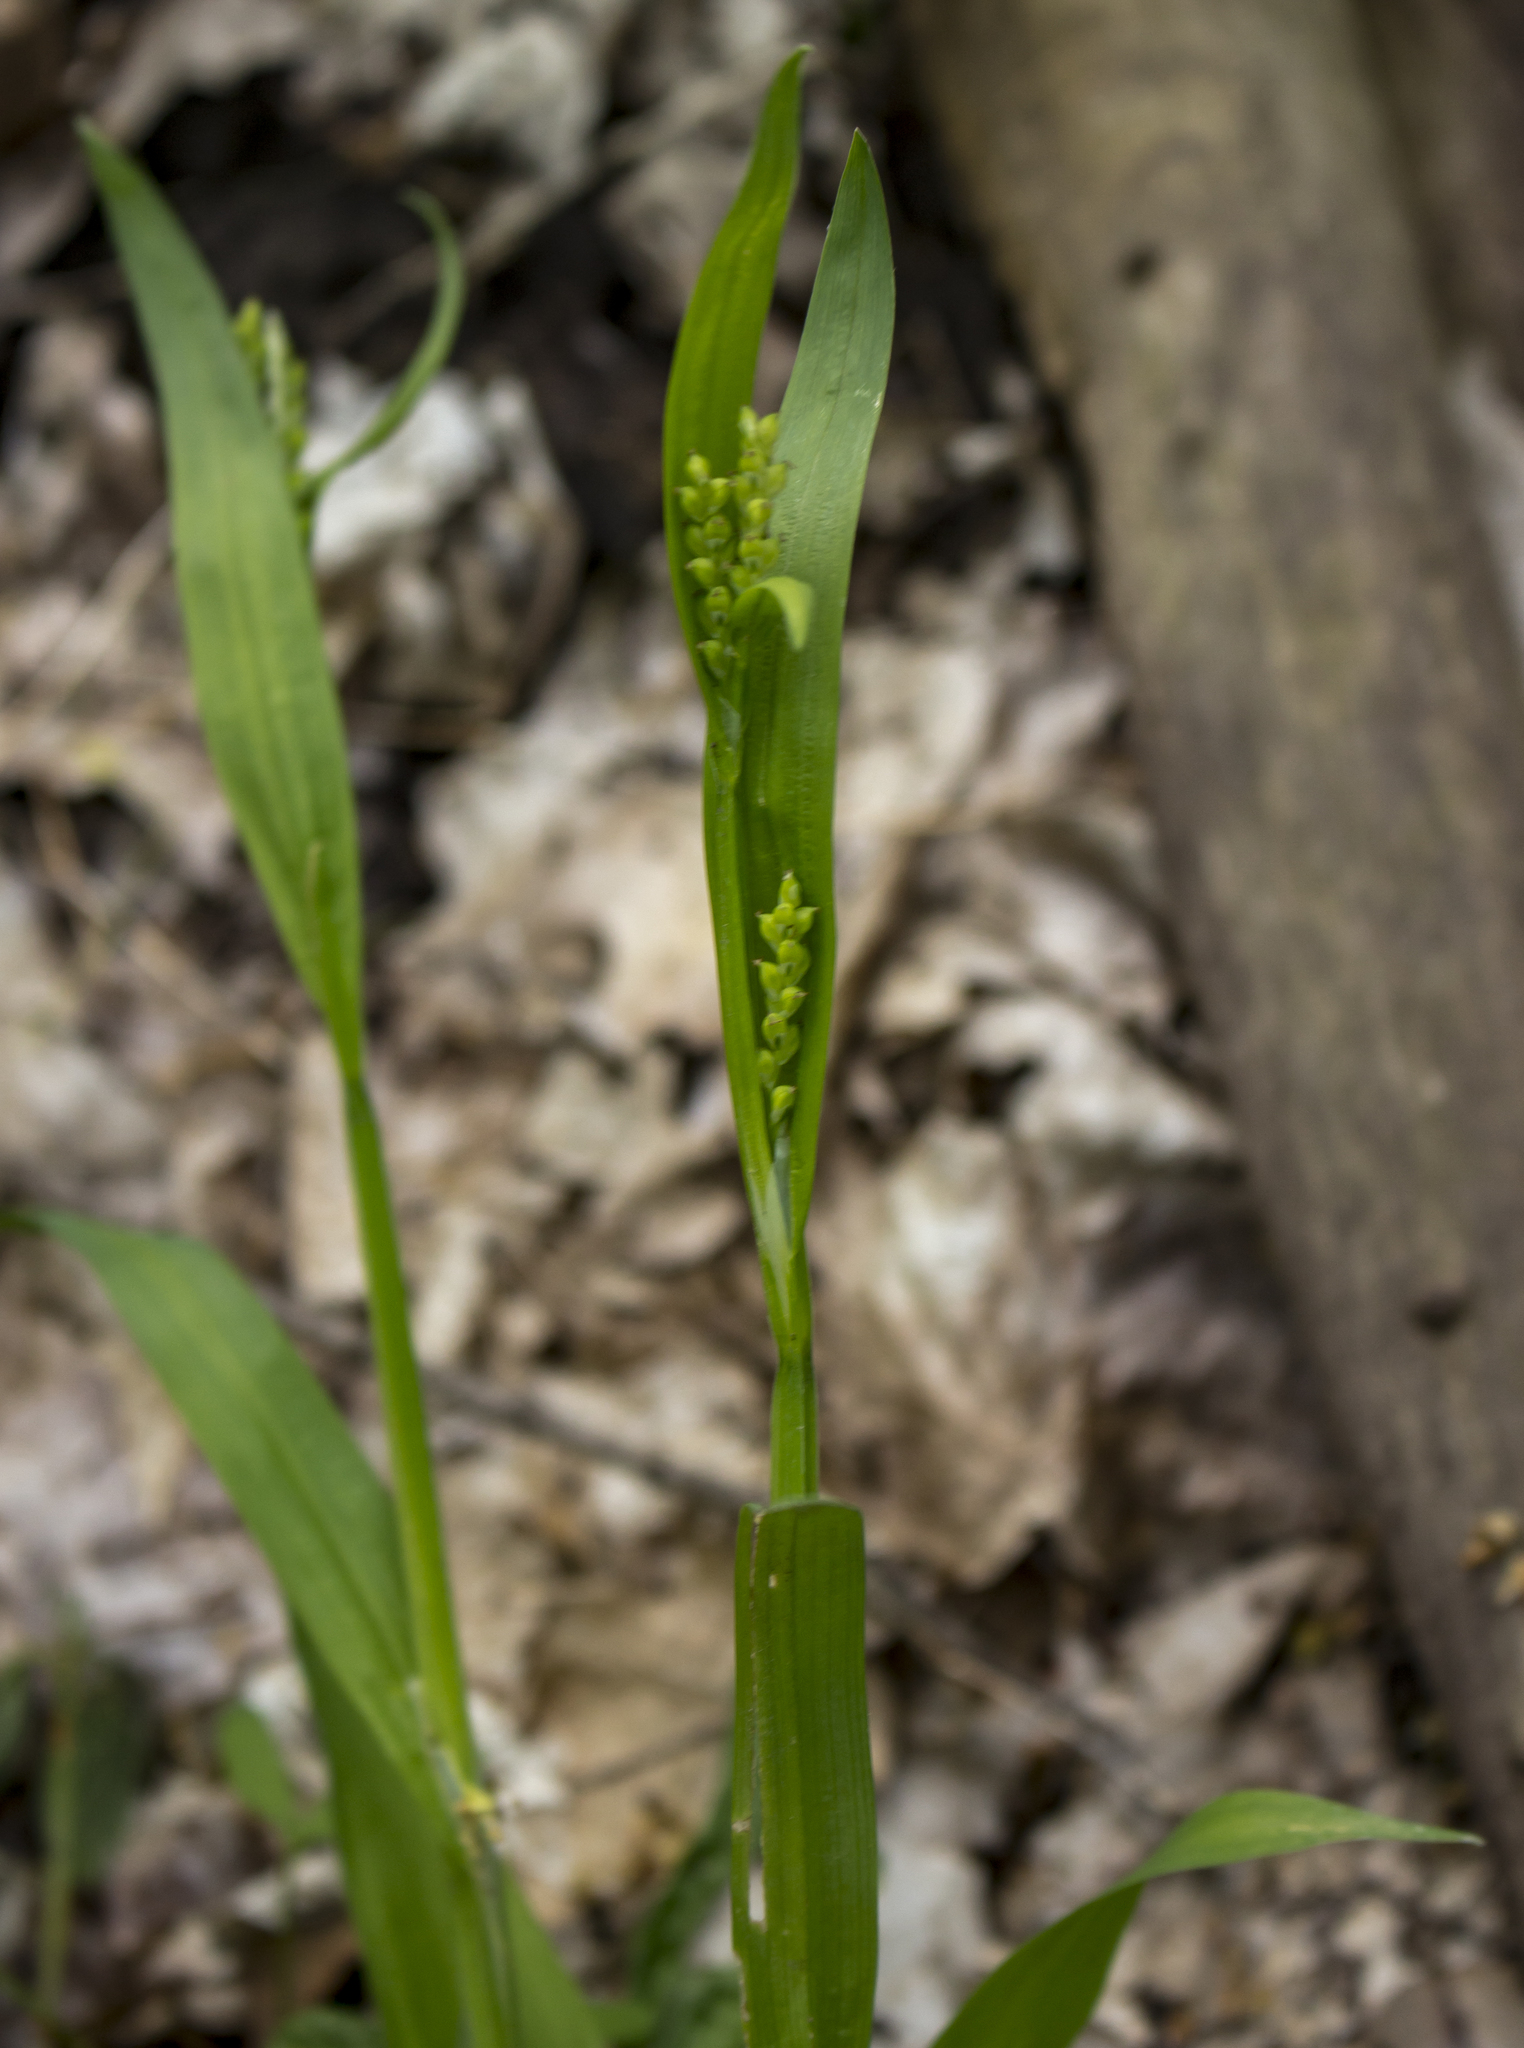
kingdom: Plantae
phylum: Tracheophyta
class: Liliopsida
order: Poales
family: Cyperaceae
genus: Carex
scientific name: Carex albursina
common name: Blunt-scale wood sedge
